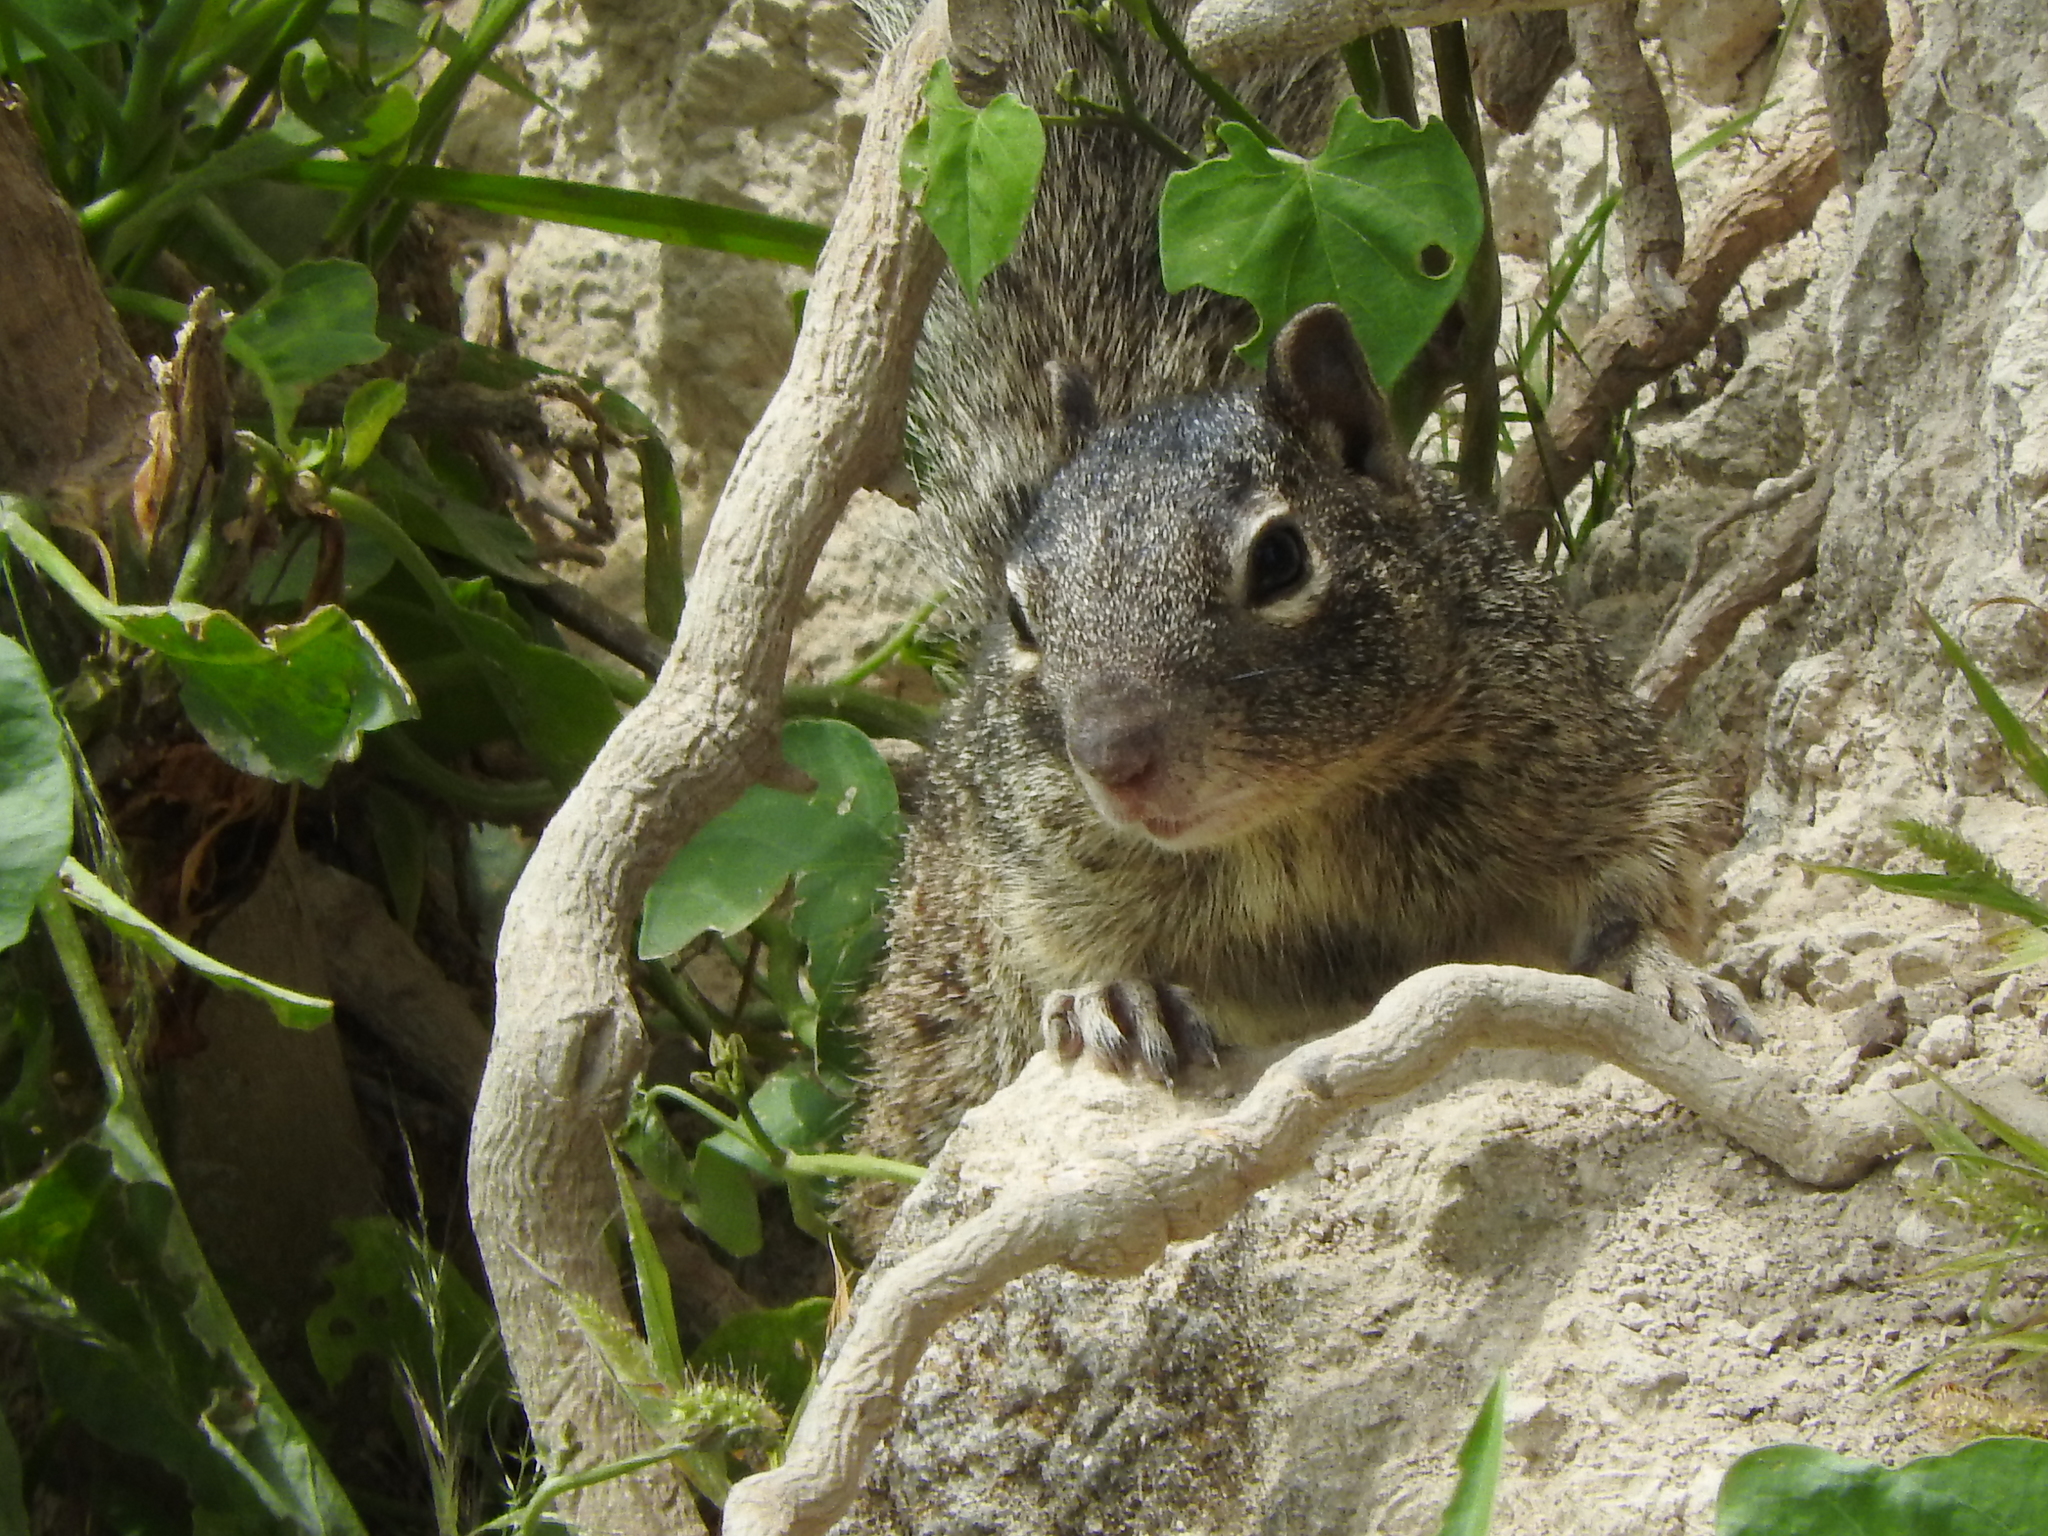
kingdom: Animalia
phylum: Chordata
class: Mammalia
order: Rodentia
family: Sciuridae
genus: Otospermophilus
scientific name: Otospermophilus variegatus
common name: Rock squirrel
